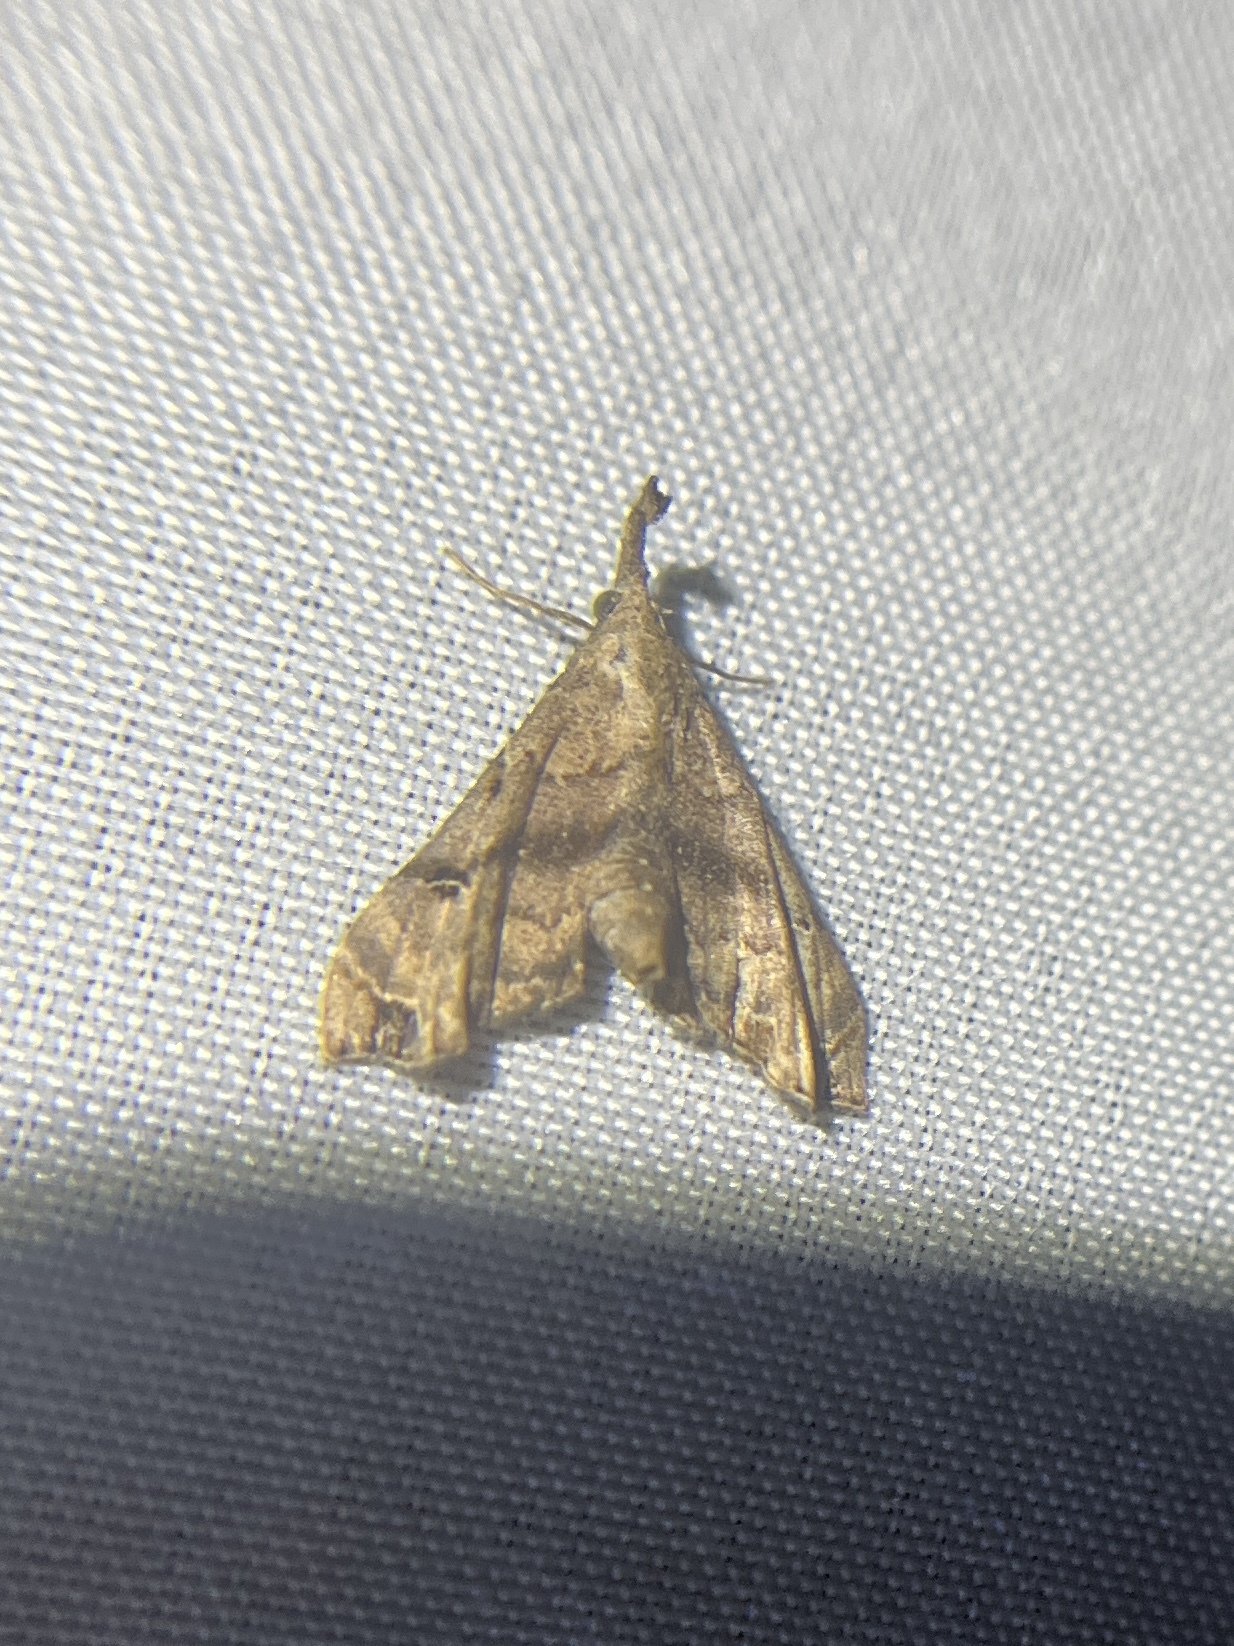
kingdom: Animalia
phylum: Arthropoda
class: Insecta
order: Lepidoptera
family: Erebidae
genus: Palthis
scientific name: Palthis asopialis
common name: Faint-spotted palthis moth
